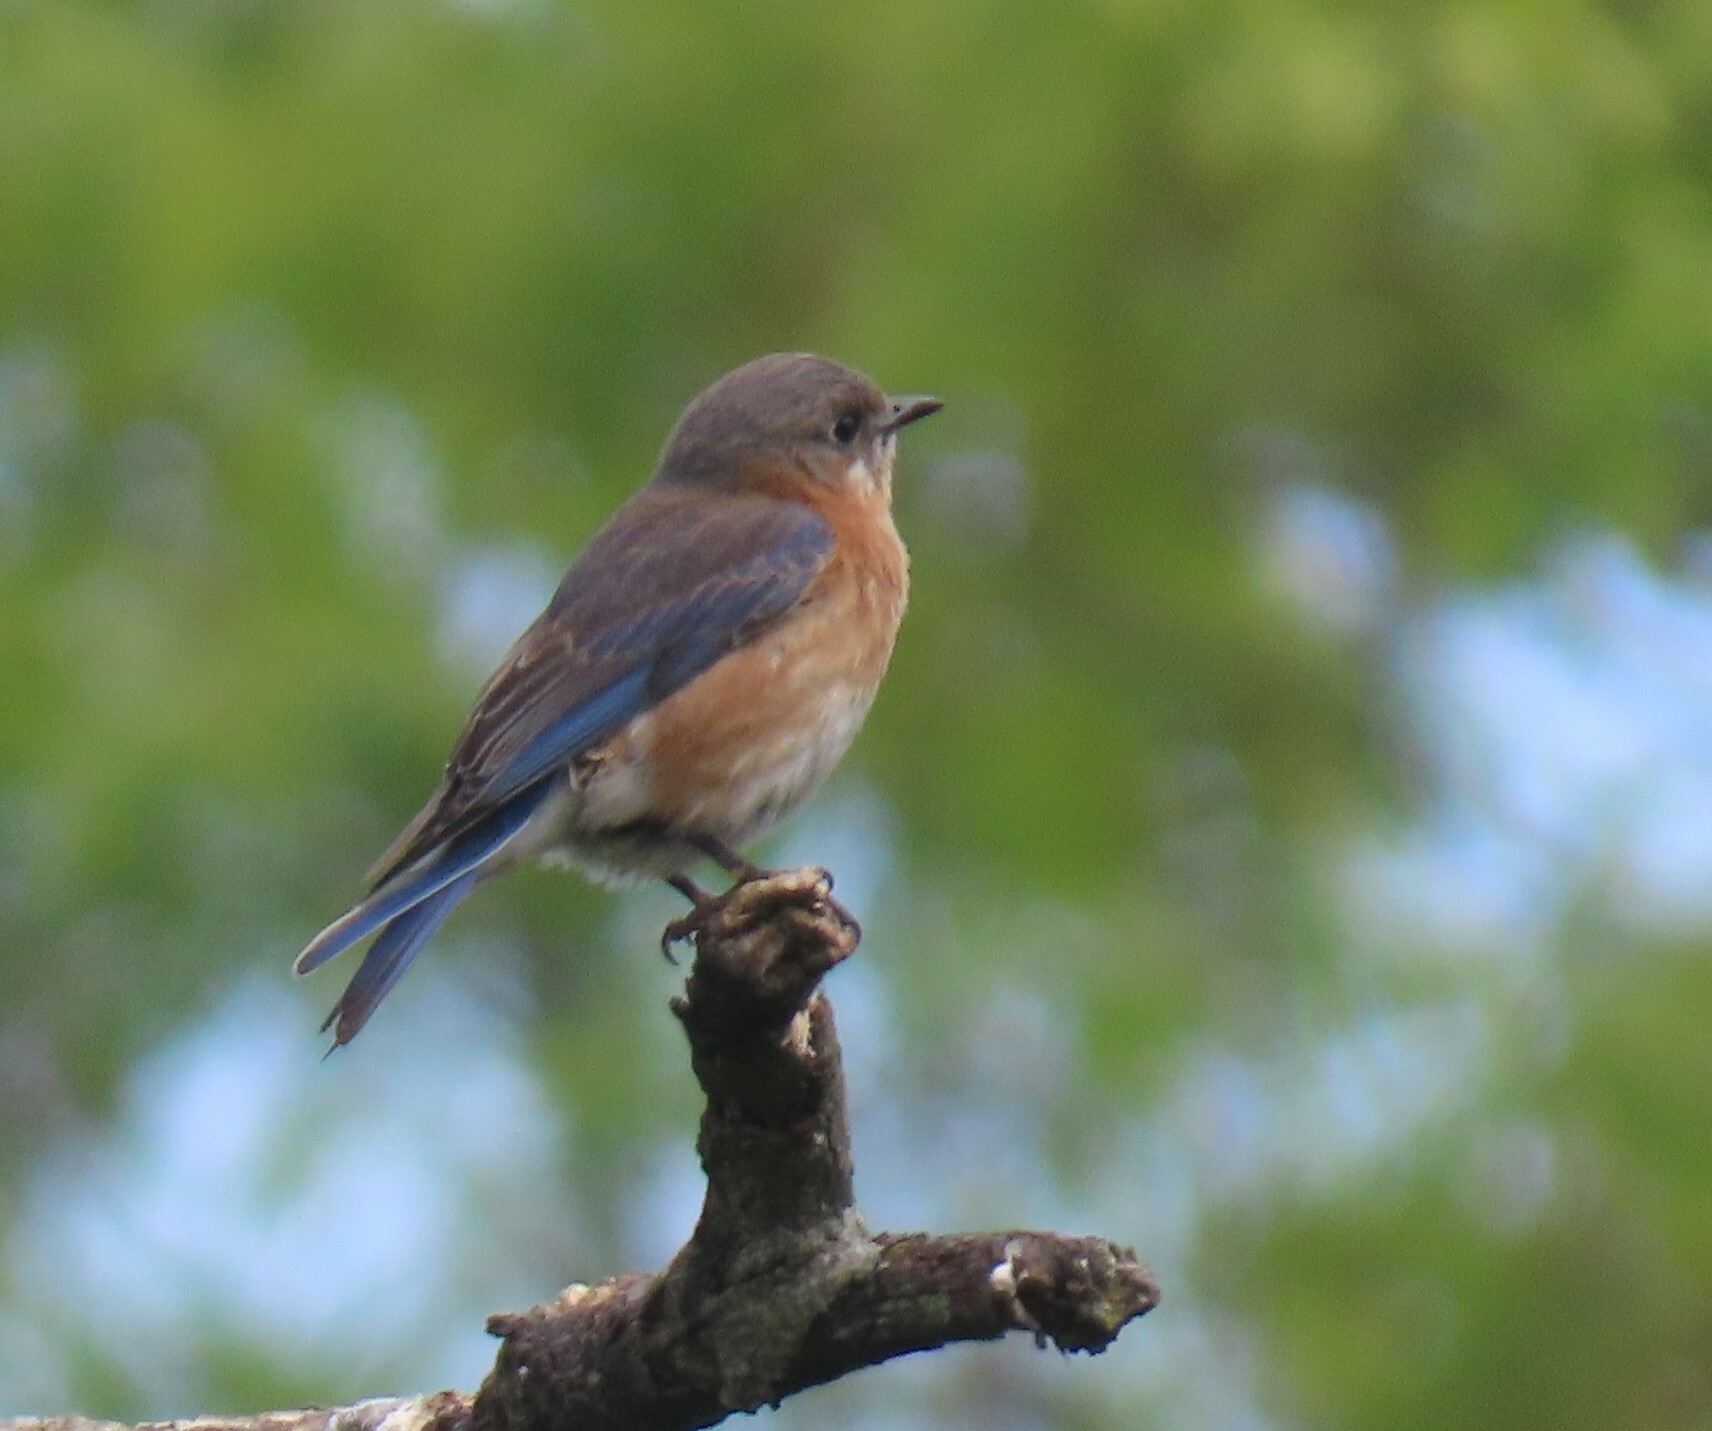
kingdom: Animalia
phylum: Chordata
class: Aves
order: Passeriformes
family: Turdidae
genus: Sialia
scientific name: Sialia sialis
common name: Eastern bluebird
